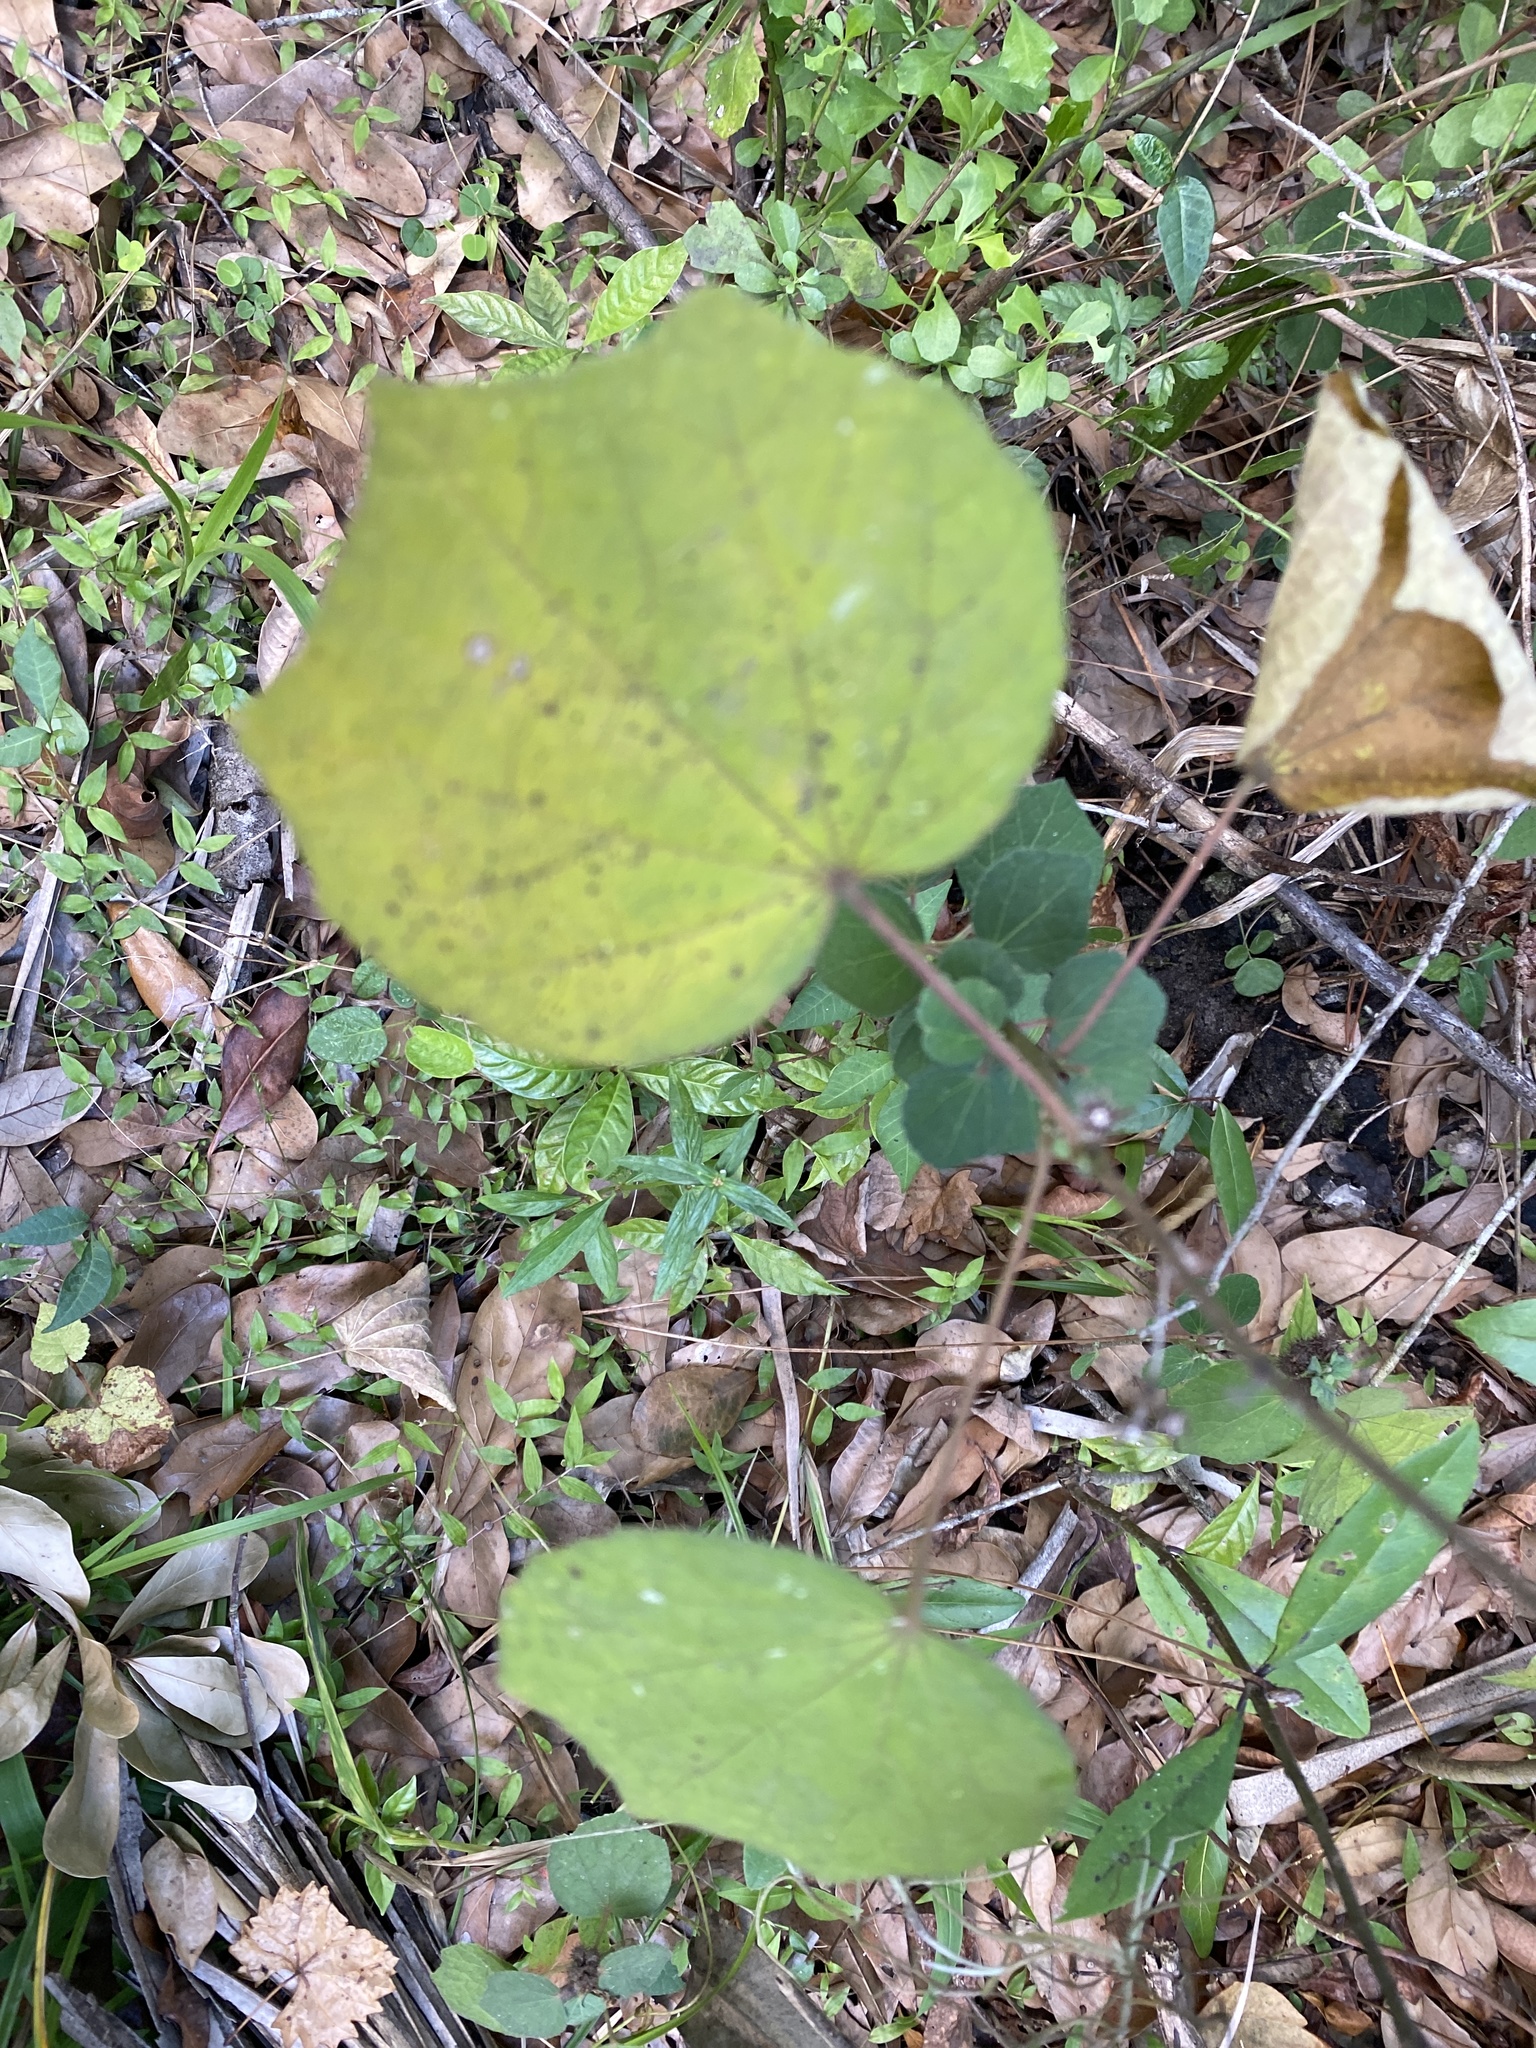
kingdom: Plantae
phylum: Tracheophyta
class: Magnoliopsida
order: Malvales
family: Malvaceae
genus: Urena
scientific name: Urena lobata
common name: Caesarweed
